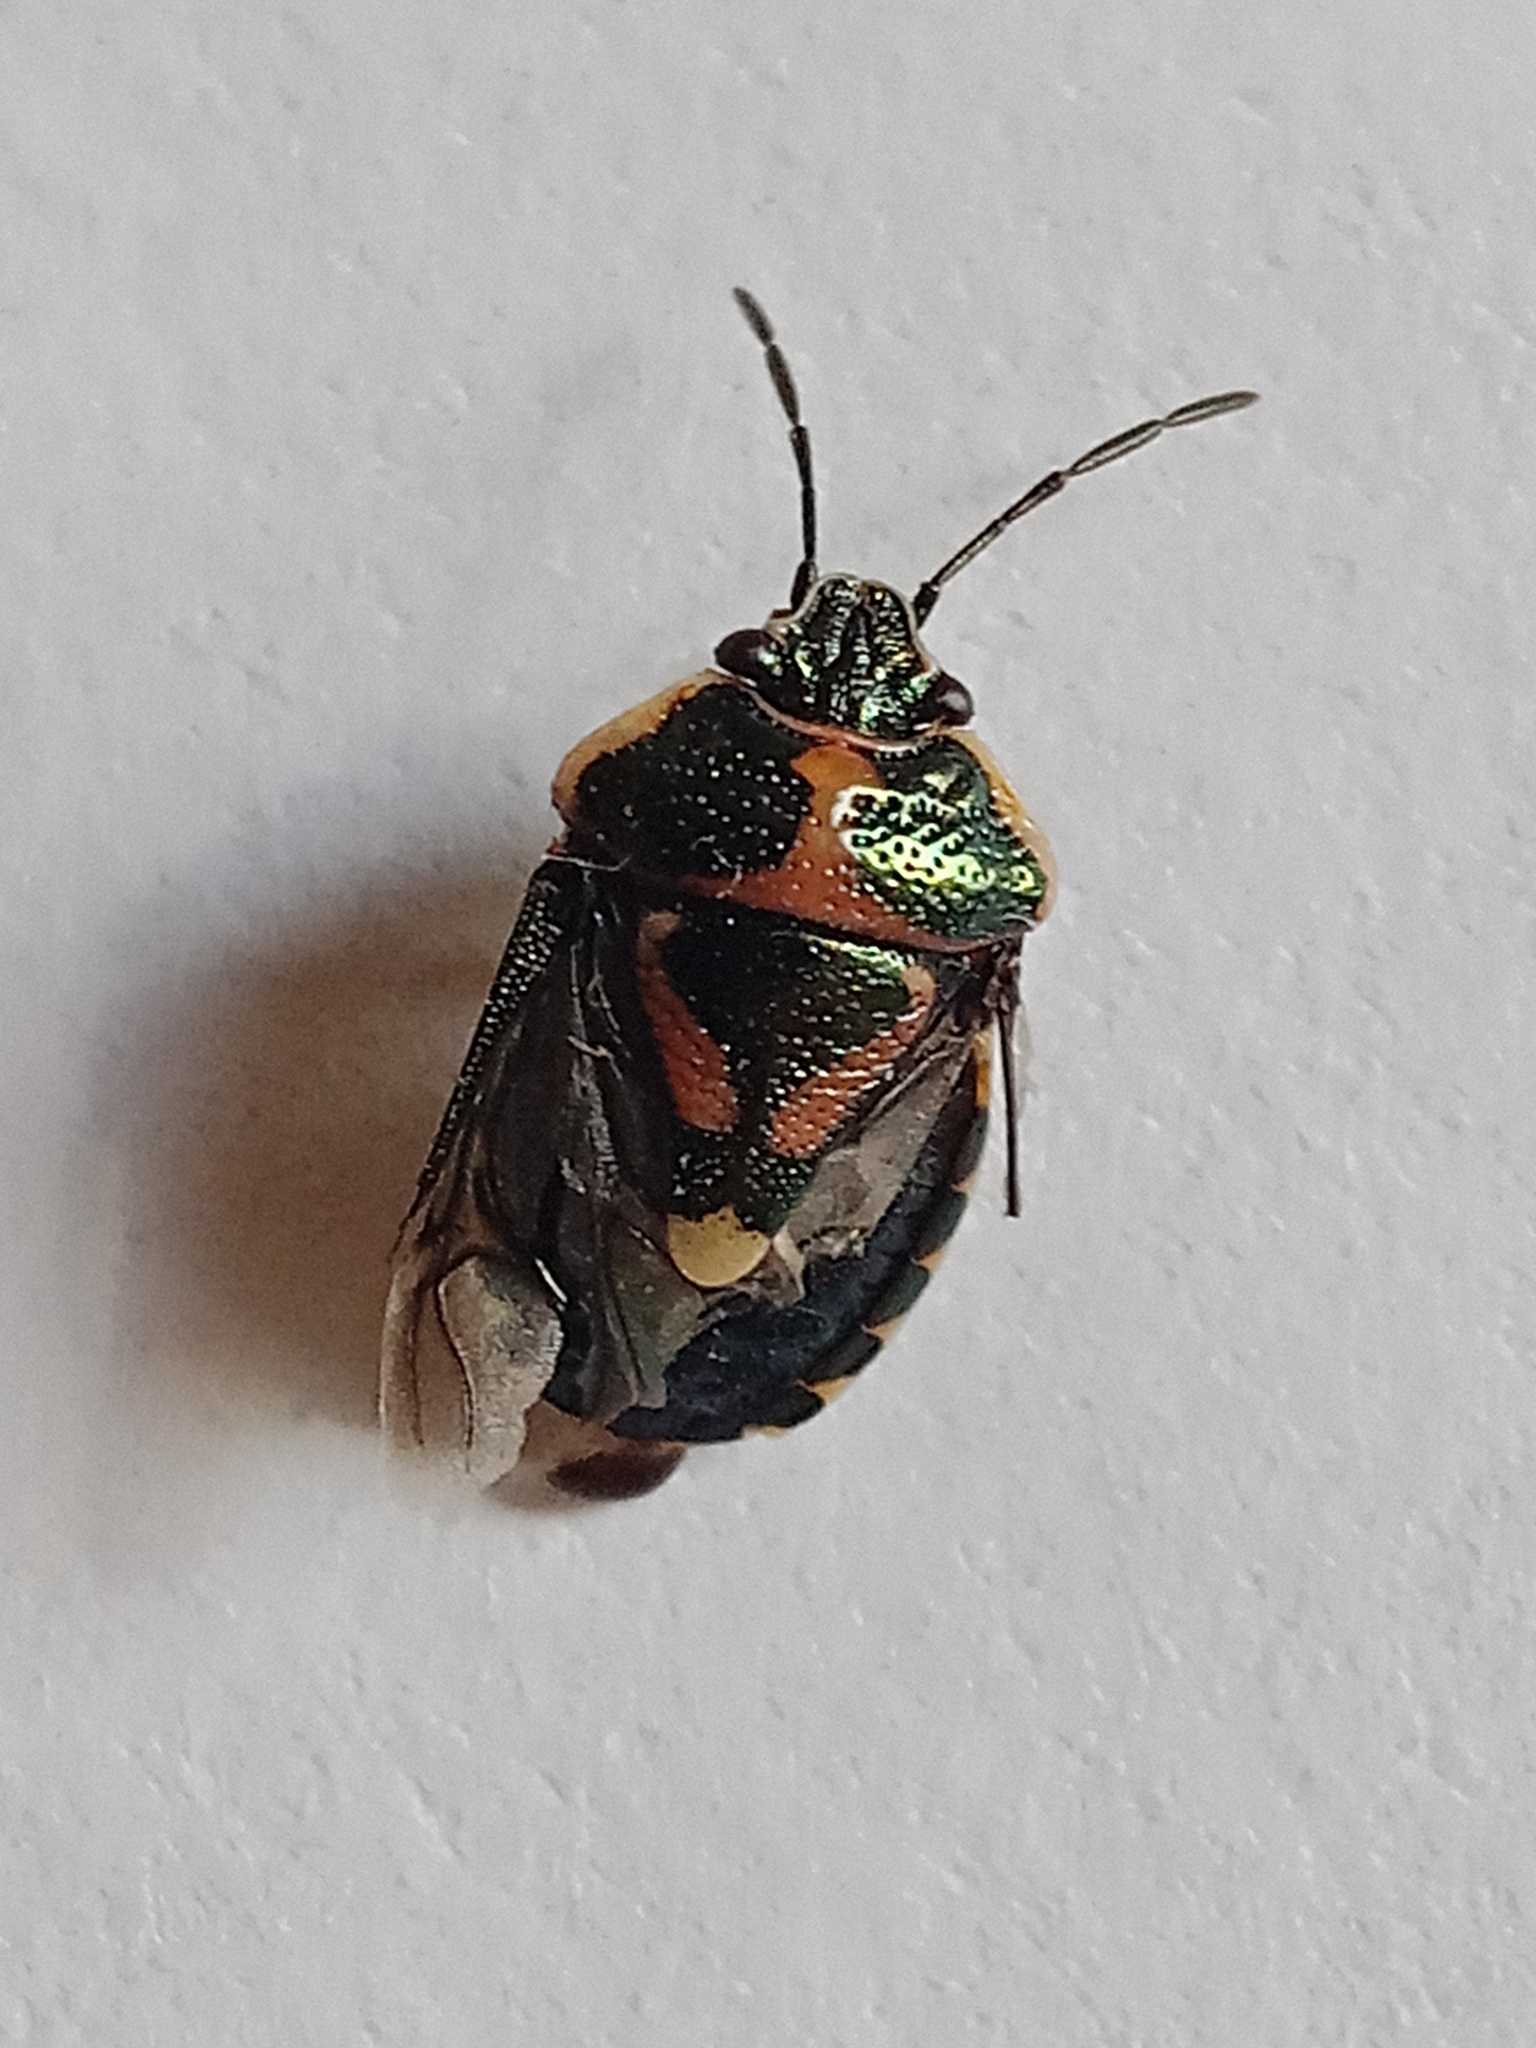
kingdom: Animalia
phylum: Arthropoda
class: Insecta
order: Hemiptera
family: Pentatomidae
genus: Eurydema
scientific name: Eurydema oleracea
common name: Cabbage bug
